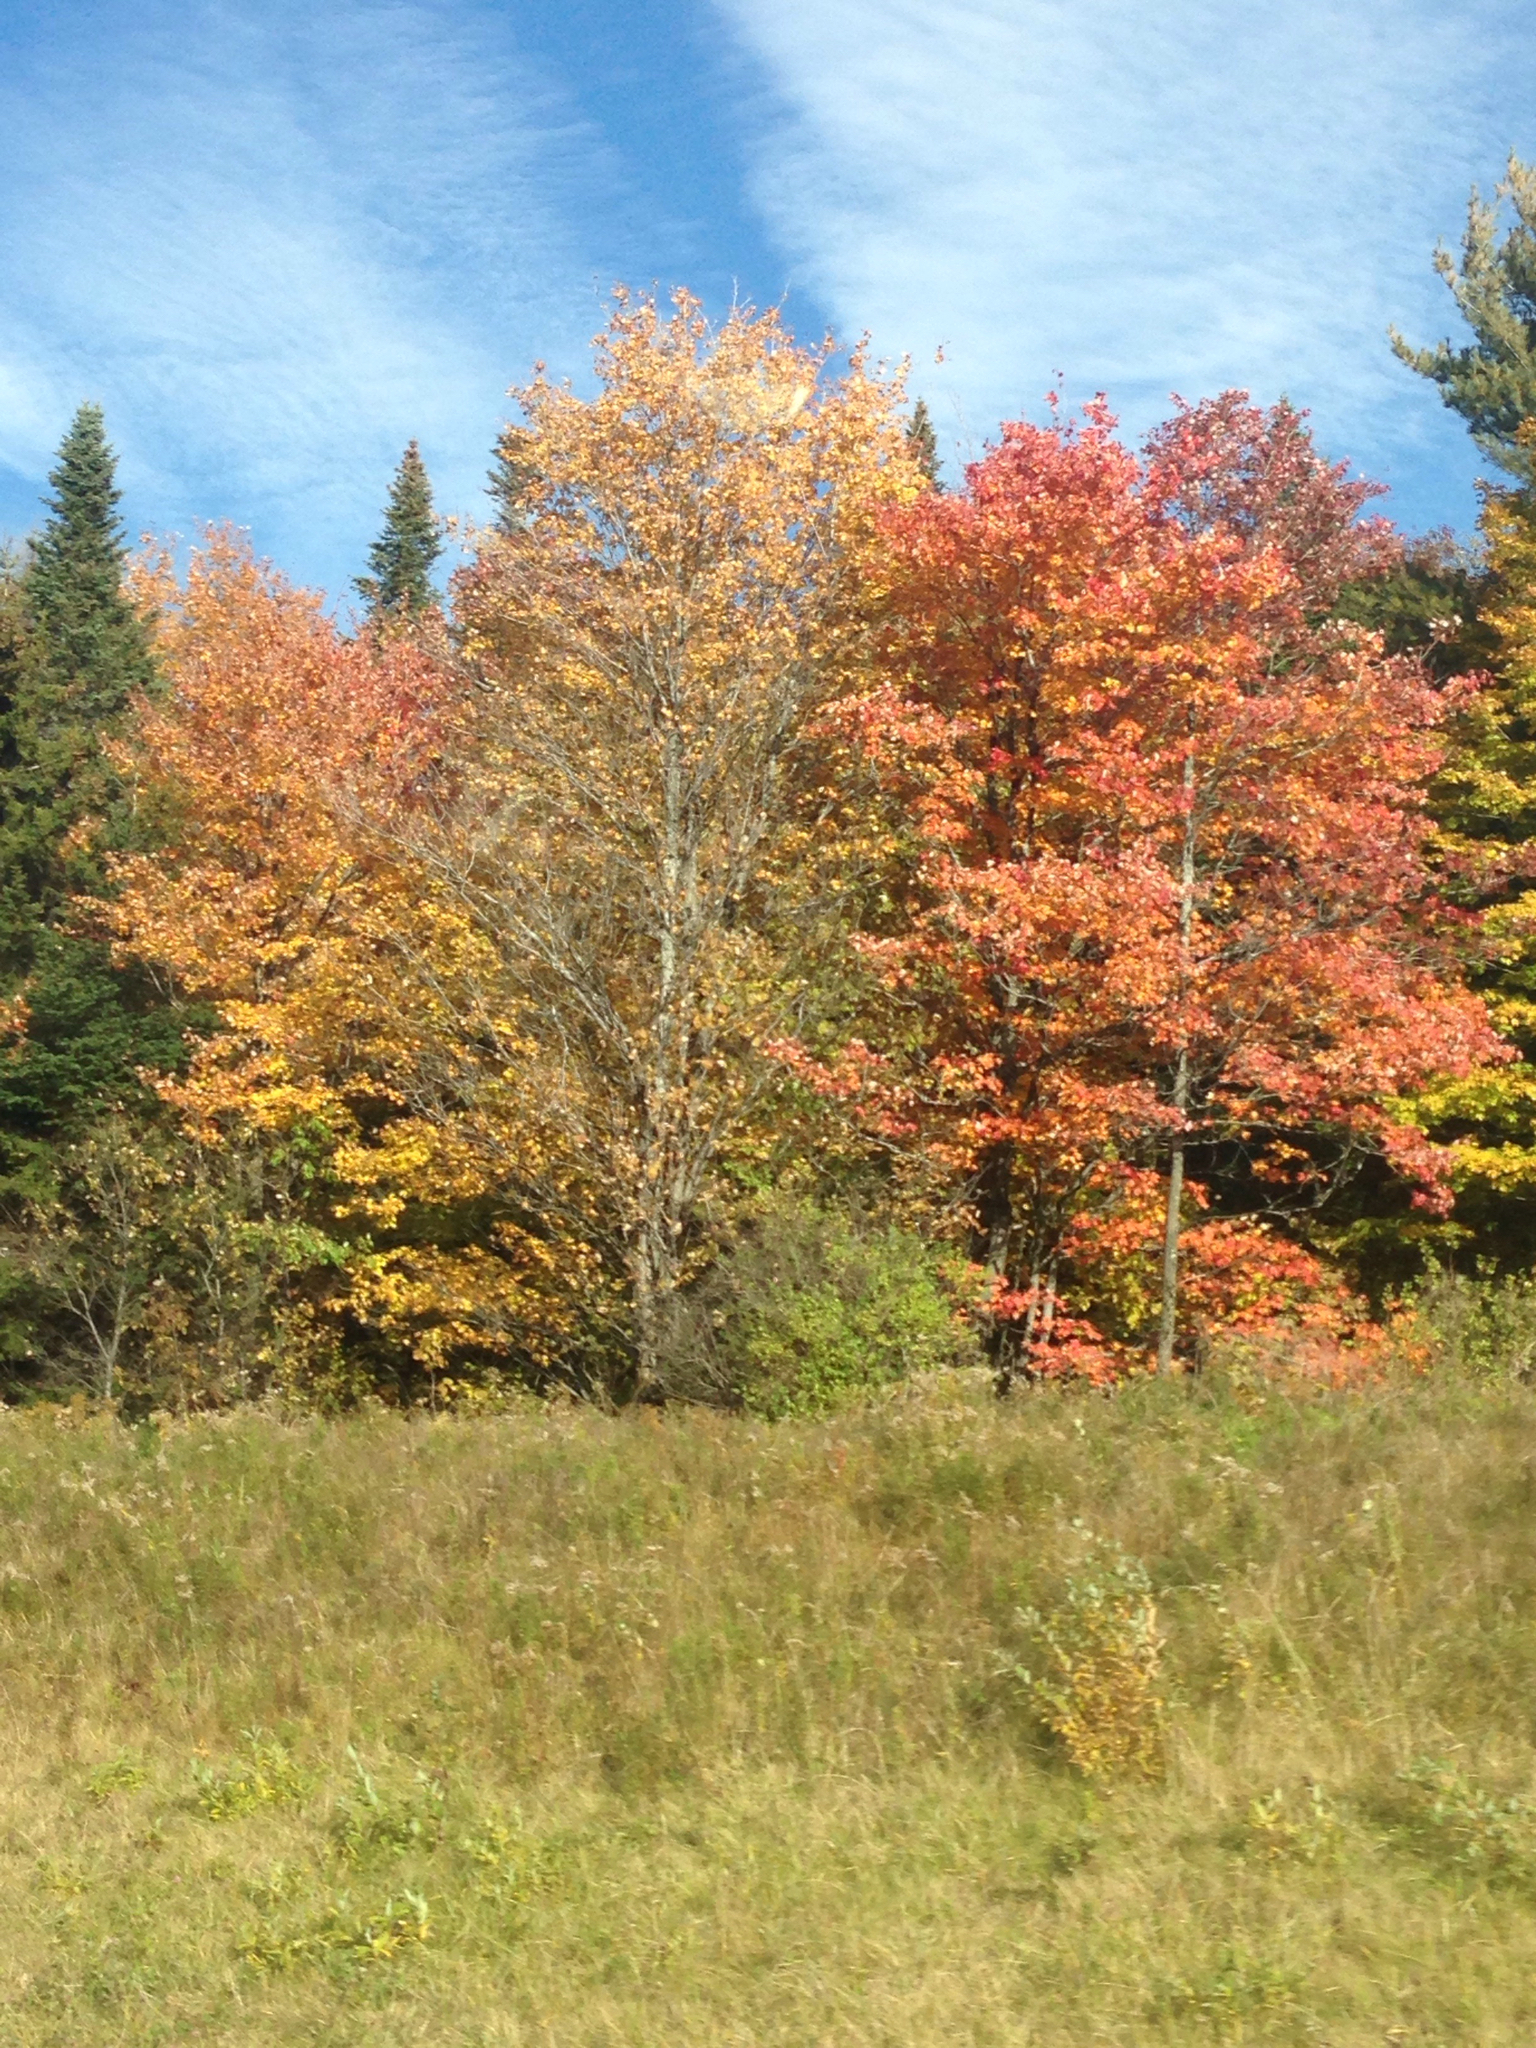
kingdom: Plantae
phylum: Tracheophyta
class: Magnoliopsida
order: Sapindales
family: Sapindaceae
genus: Acer
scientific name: Acer rubrum
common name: Red maple
